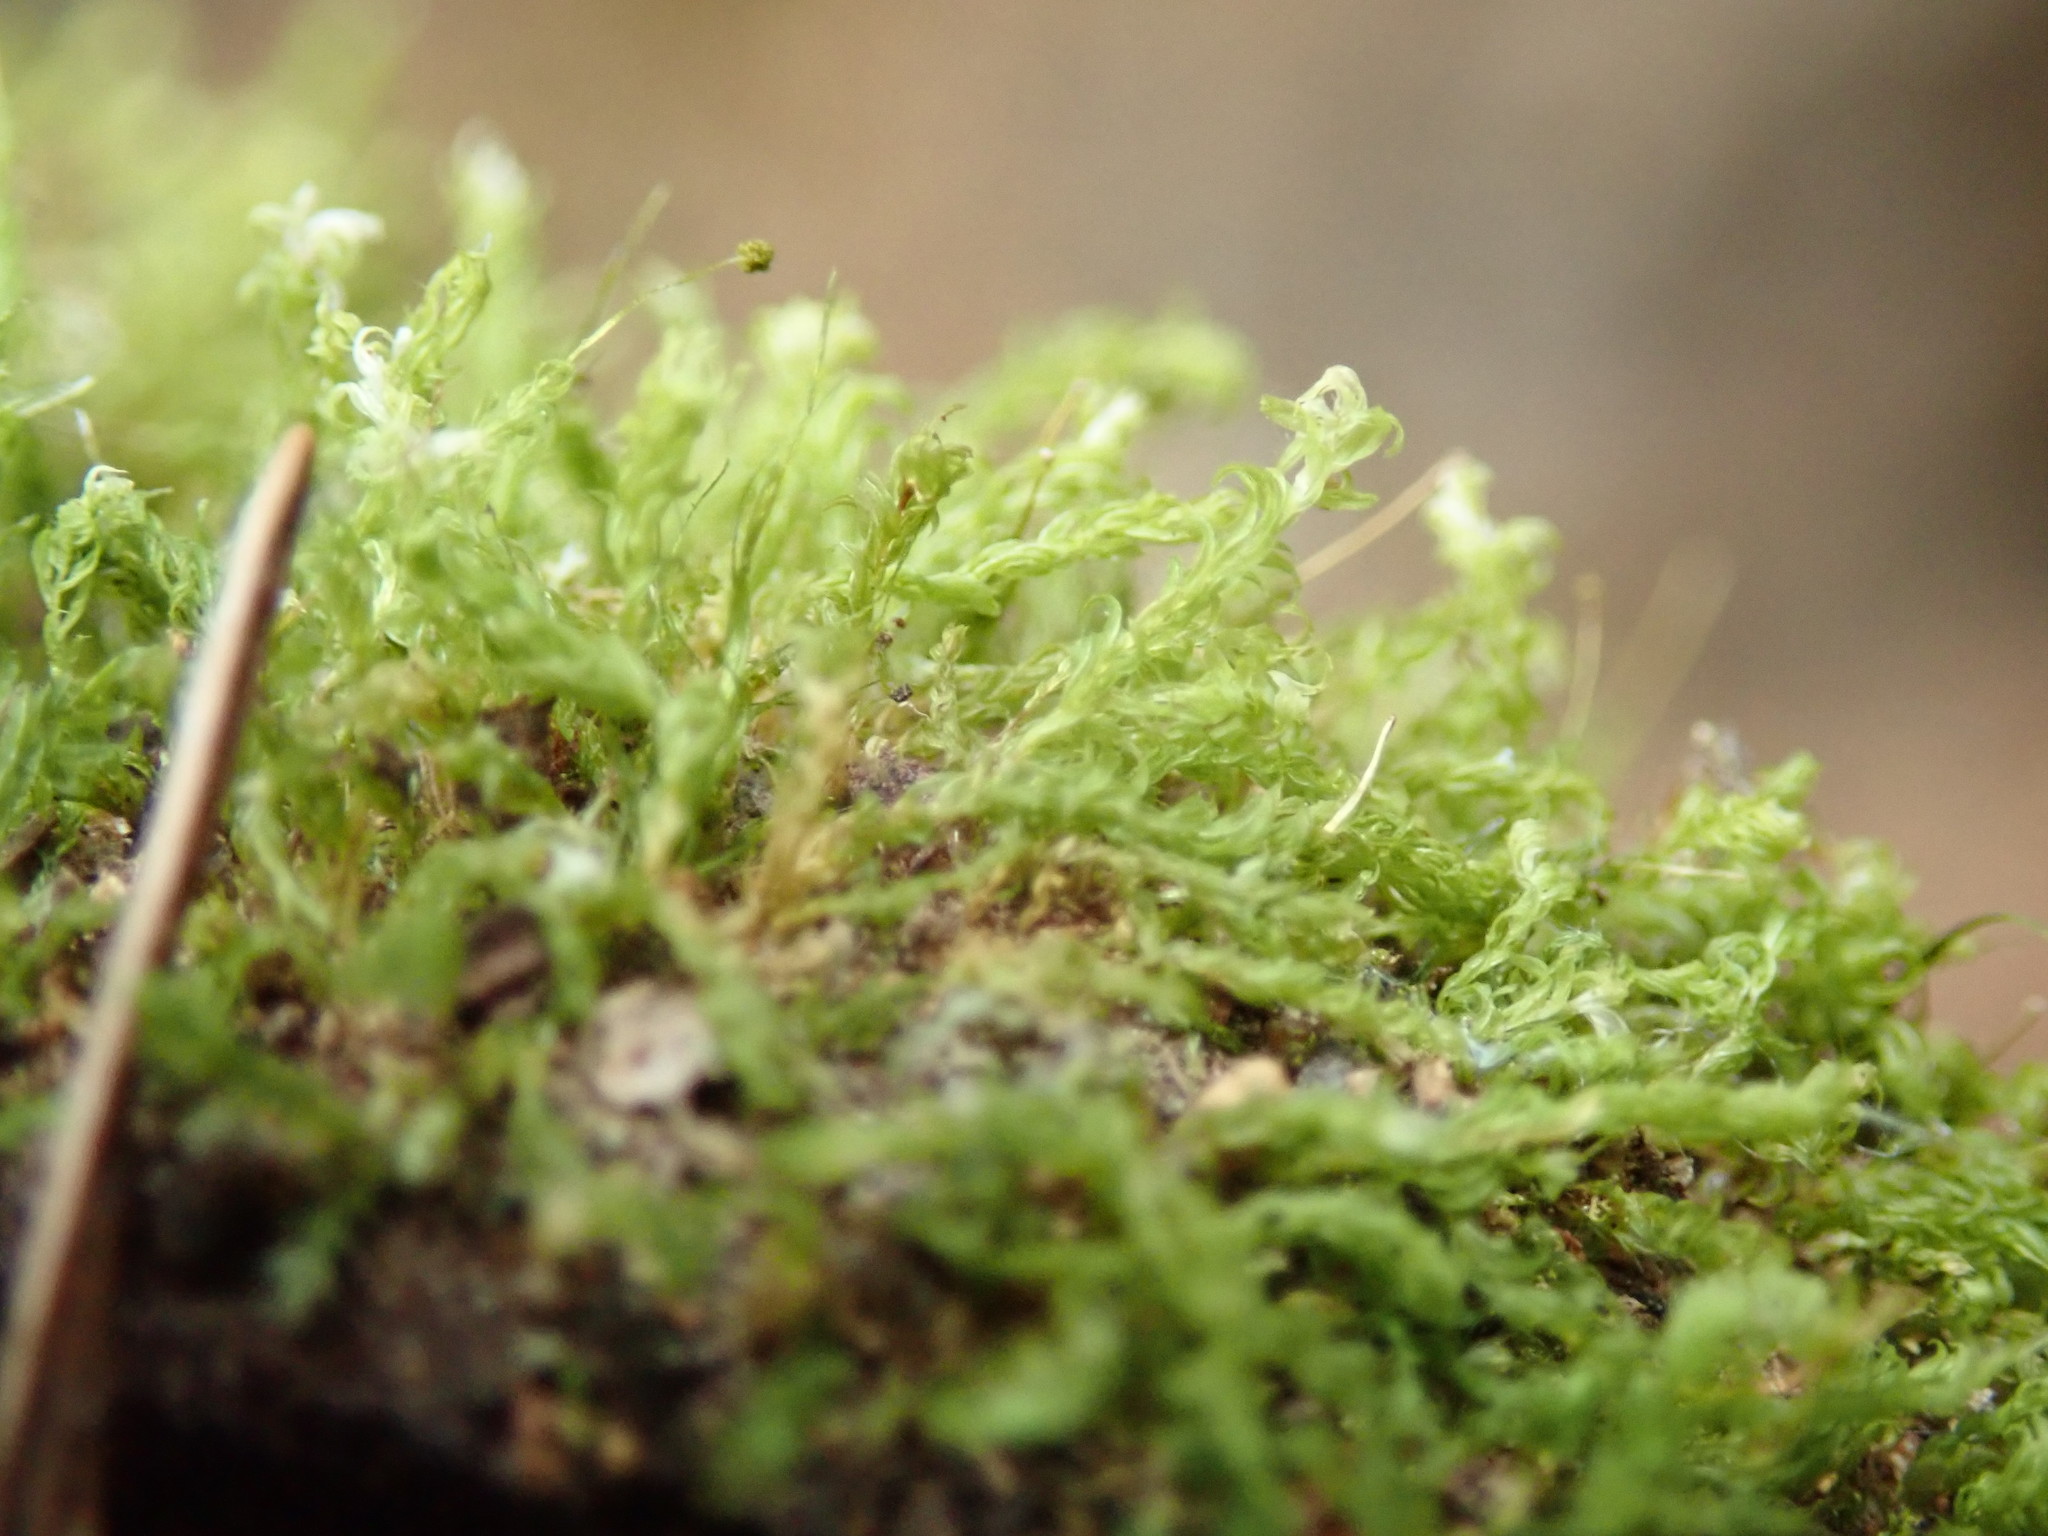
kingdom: Plantae
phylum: Bryophyta
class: Bryopsida
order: Aulacomniales
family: Aulacomniaceae
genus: Aulacomnium
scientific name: Aulacomnium androgynum
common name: Little groove moss
